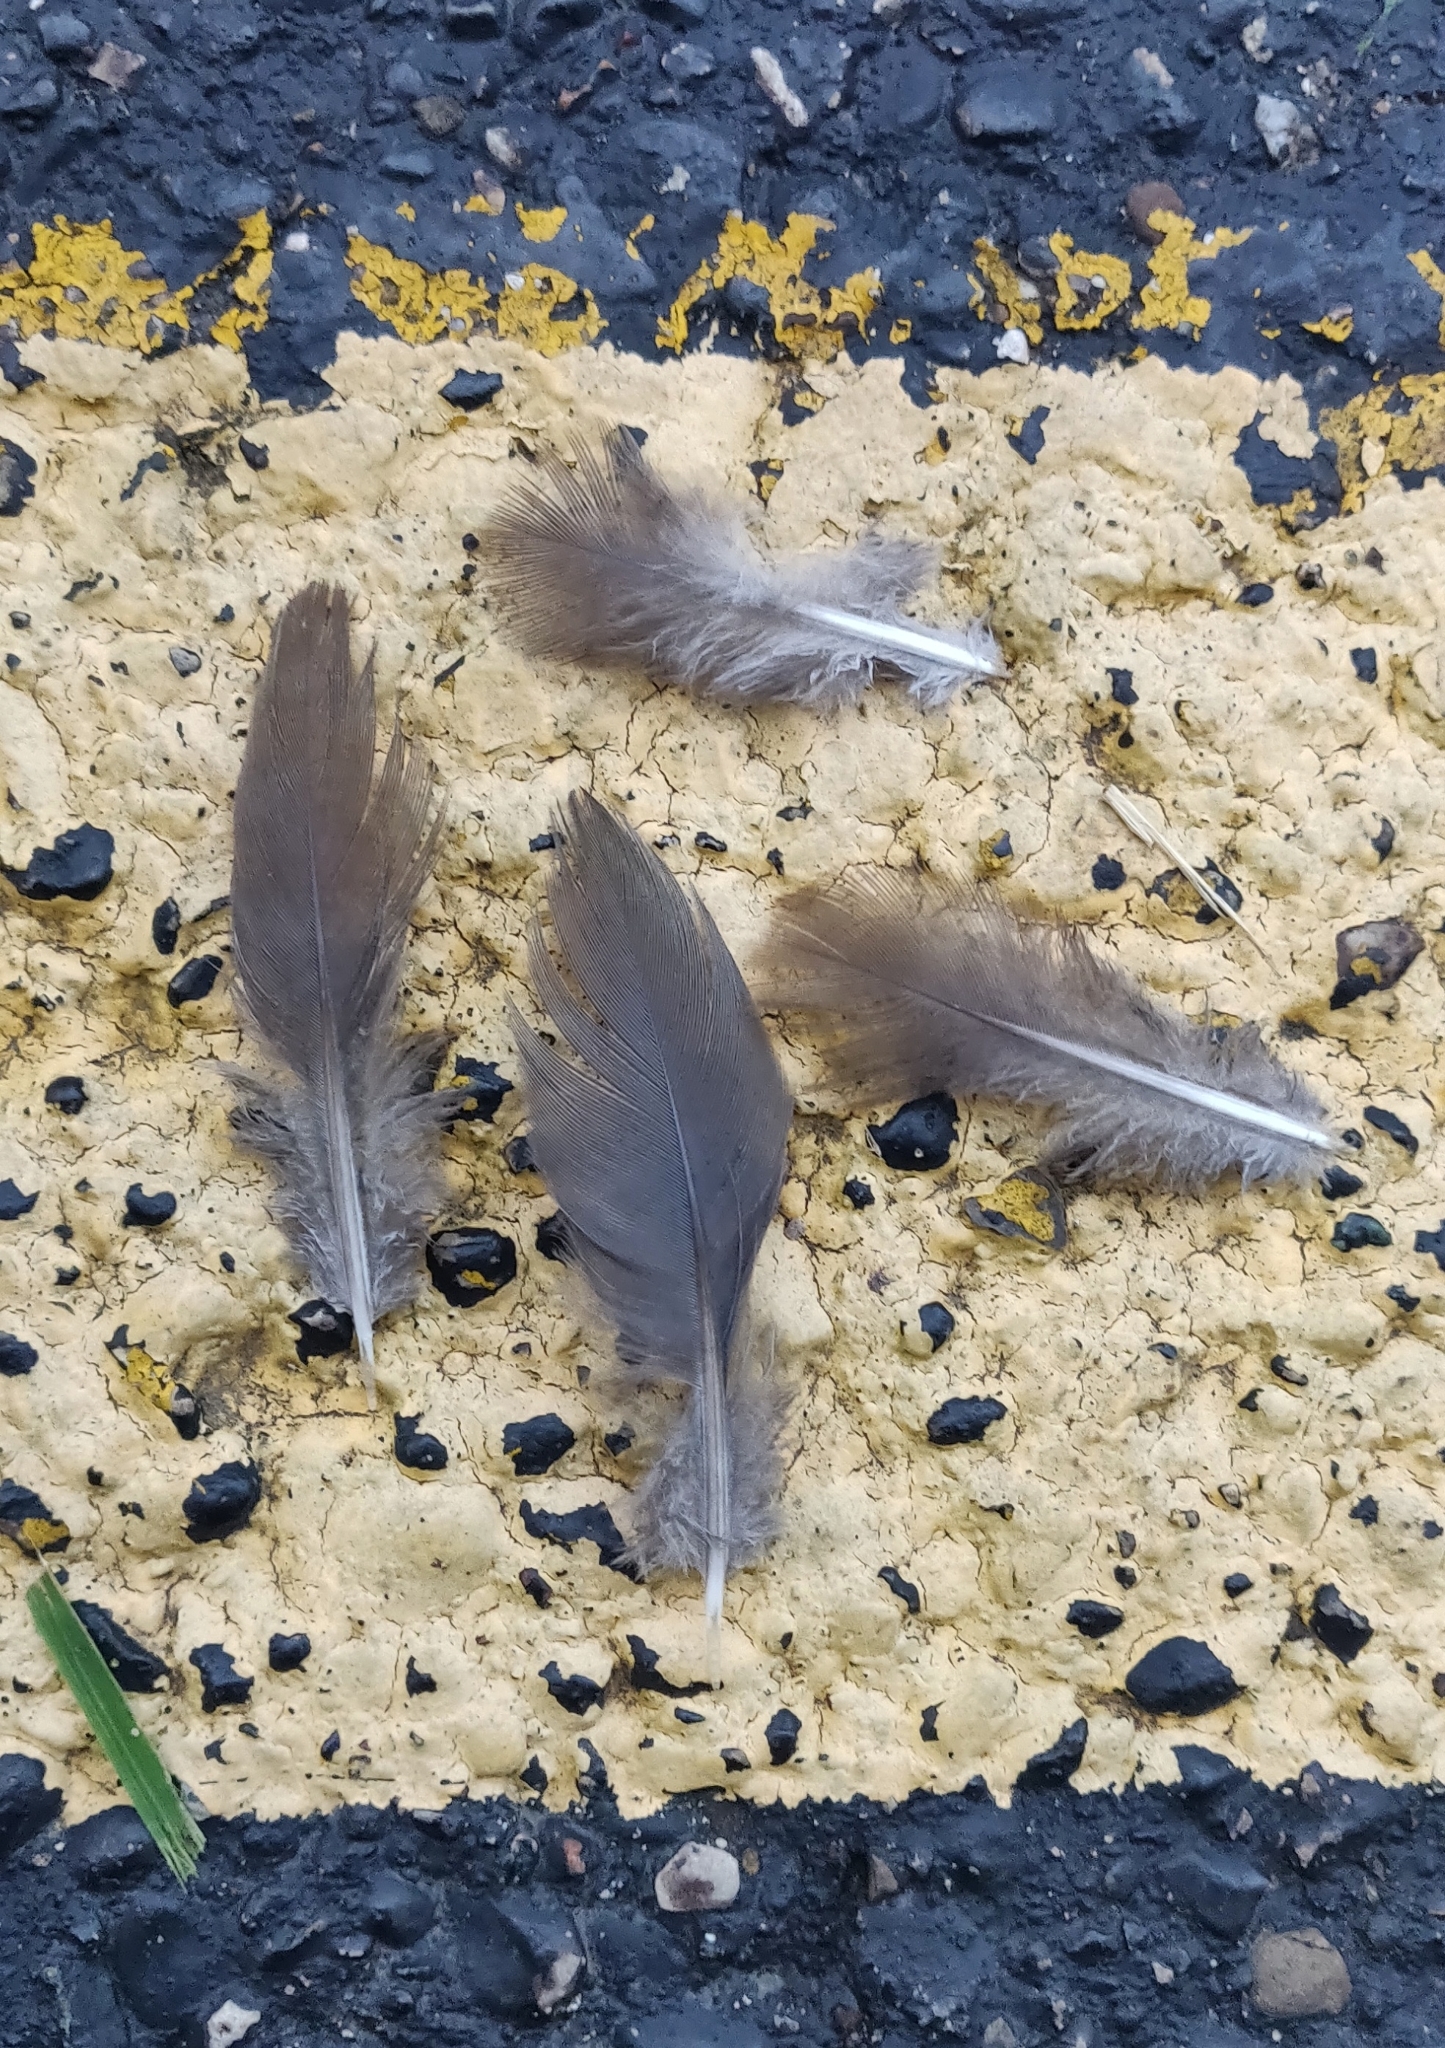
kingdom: Animalia
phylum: Chordata
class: Aves
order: Columbiformes
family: Columbidae
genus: Zenaida
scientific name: Zenaida macroura
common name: Mourning dove
